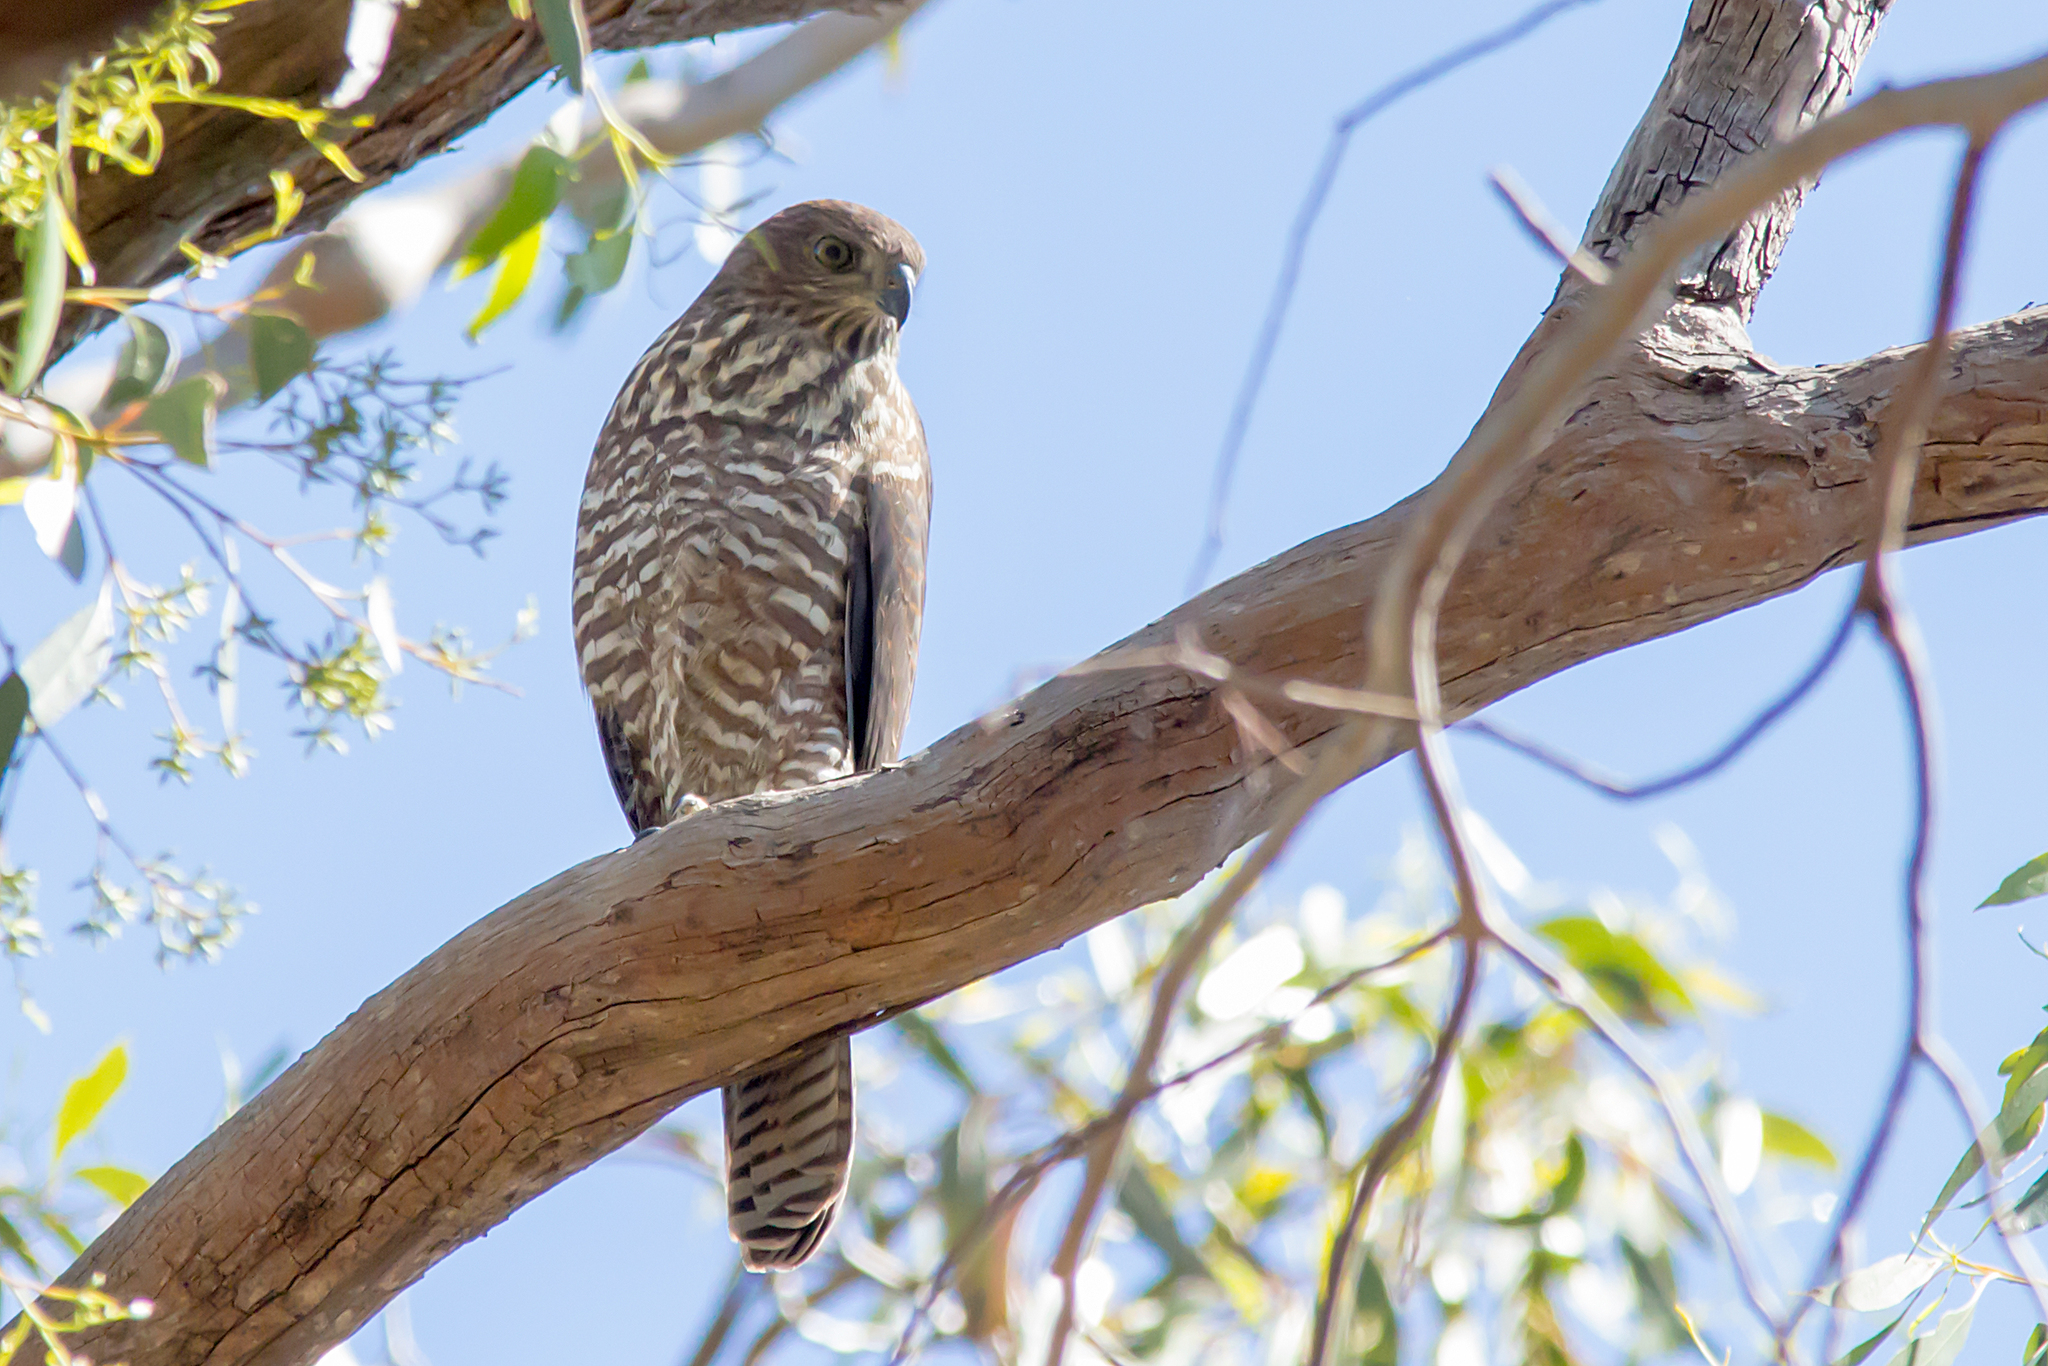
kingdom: Animalia
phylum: Chordata
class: Aves
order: Accipitriformes
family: Accipitridae
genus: Accipiter
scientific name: Accipiter fasciatus
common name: Brown goshawk
